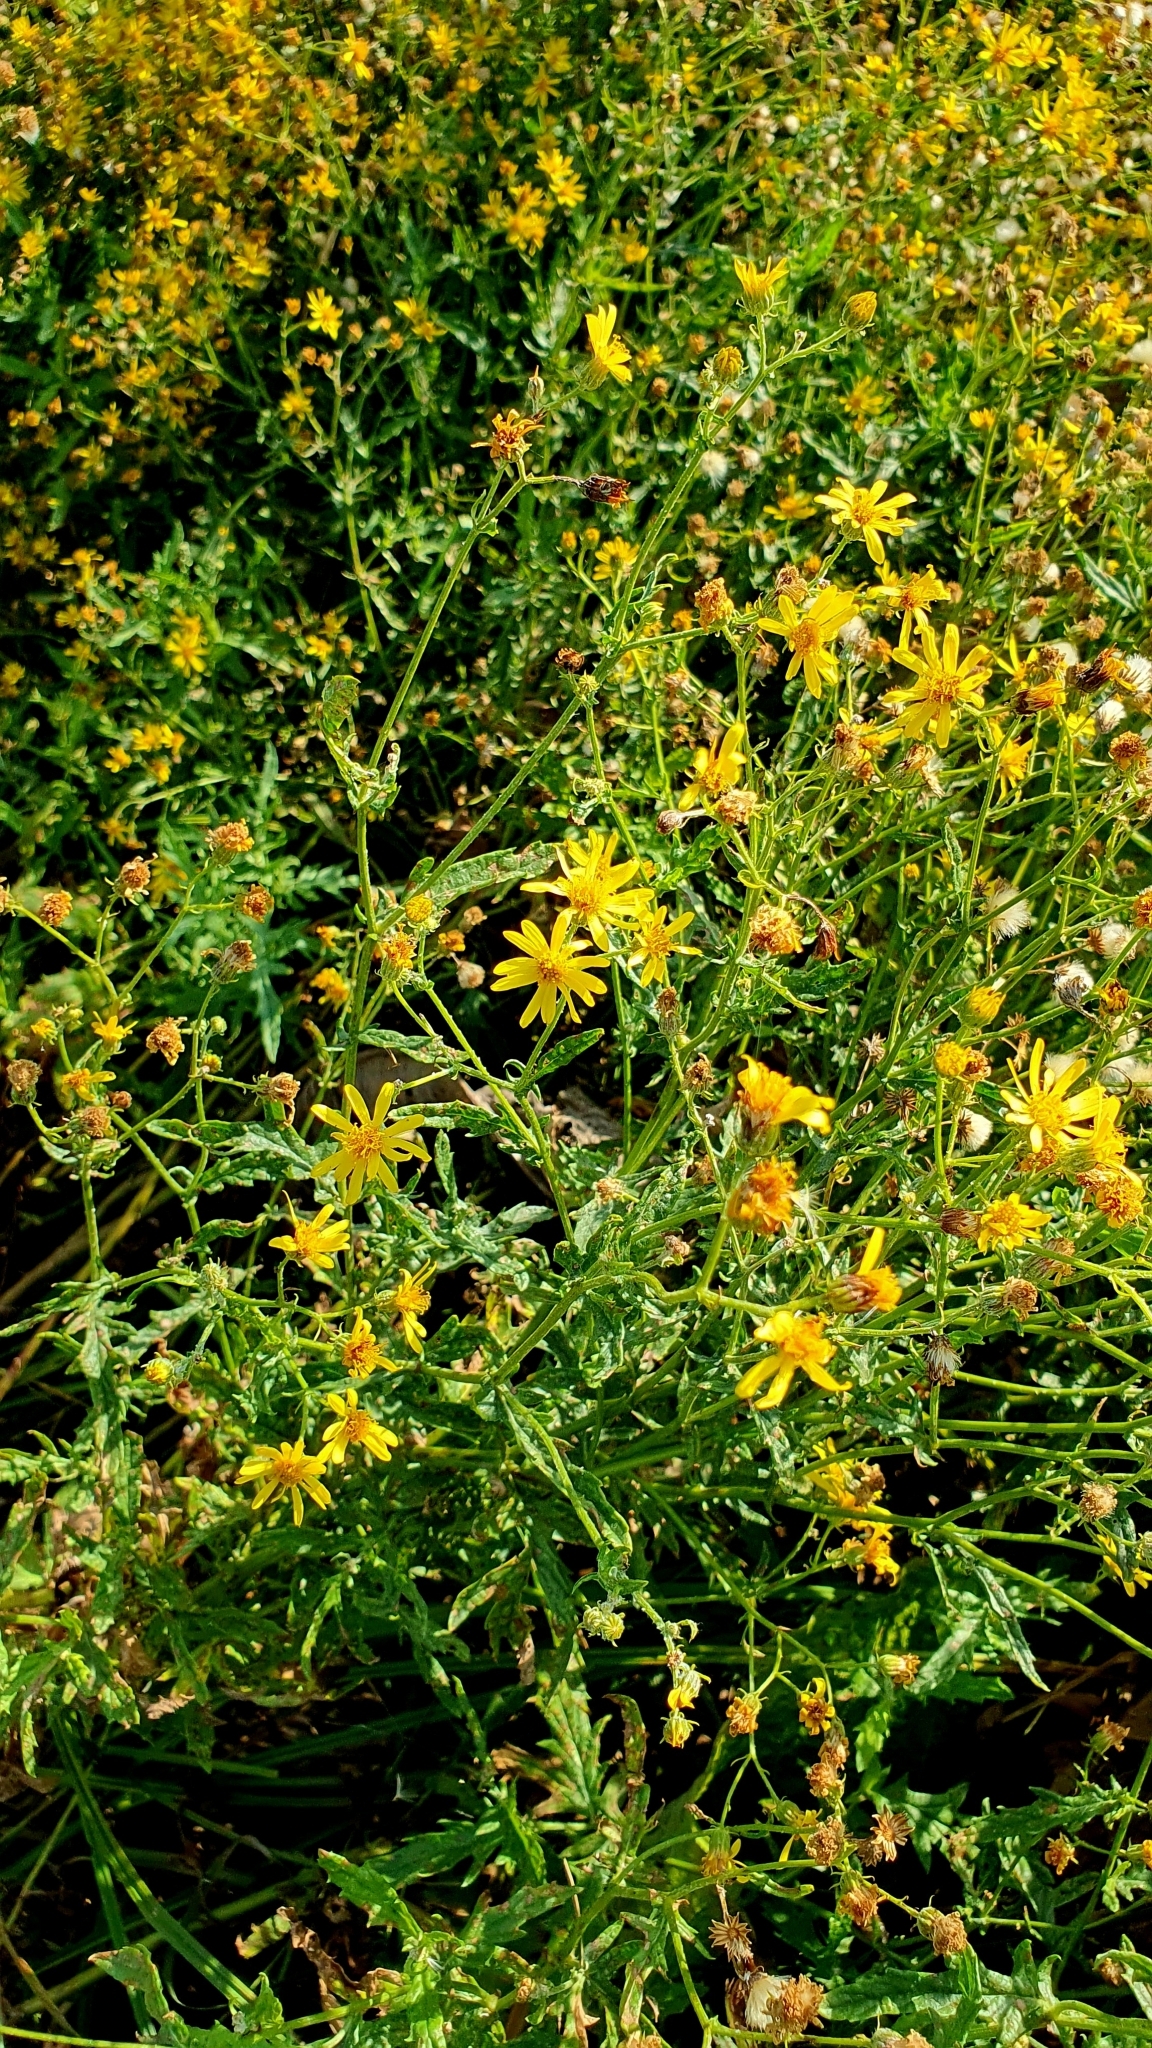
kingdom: Plantae
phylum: Tracheophyta
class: Magnoliopsida
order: Asterales
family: Asteraceae
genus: Jacobaea
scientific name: Jacobaea erucifolia
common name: Hoary ragwort
